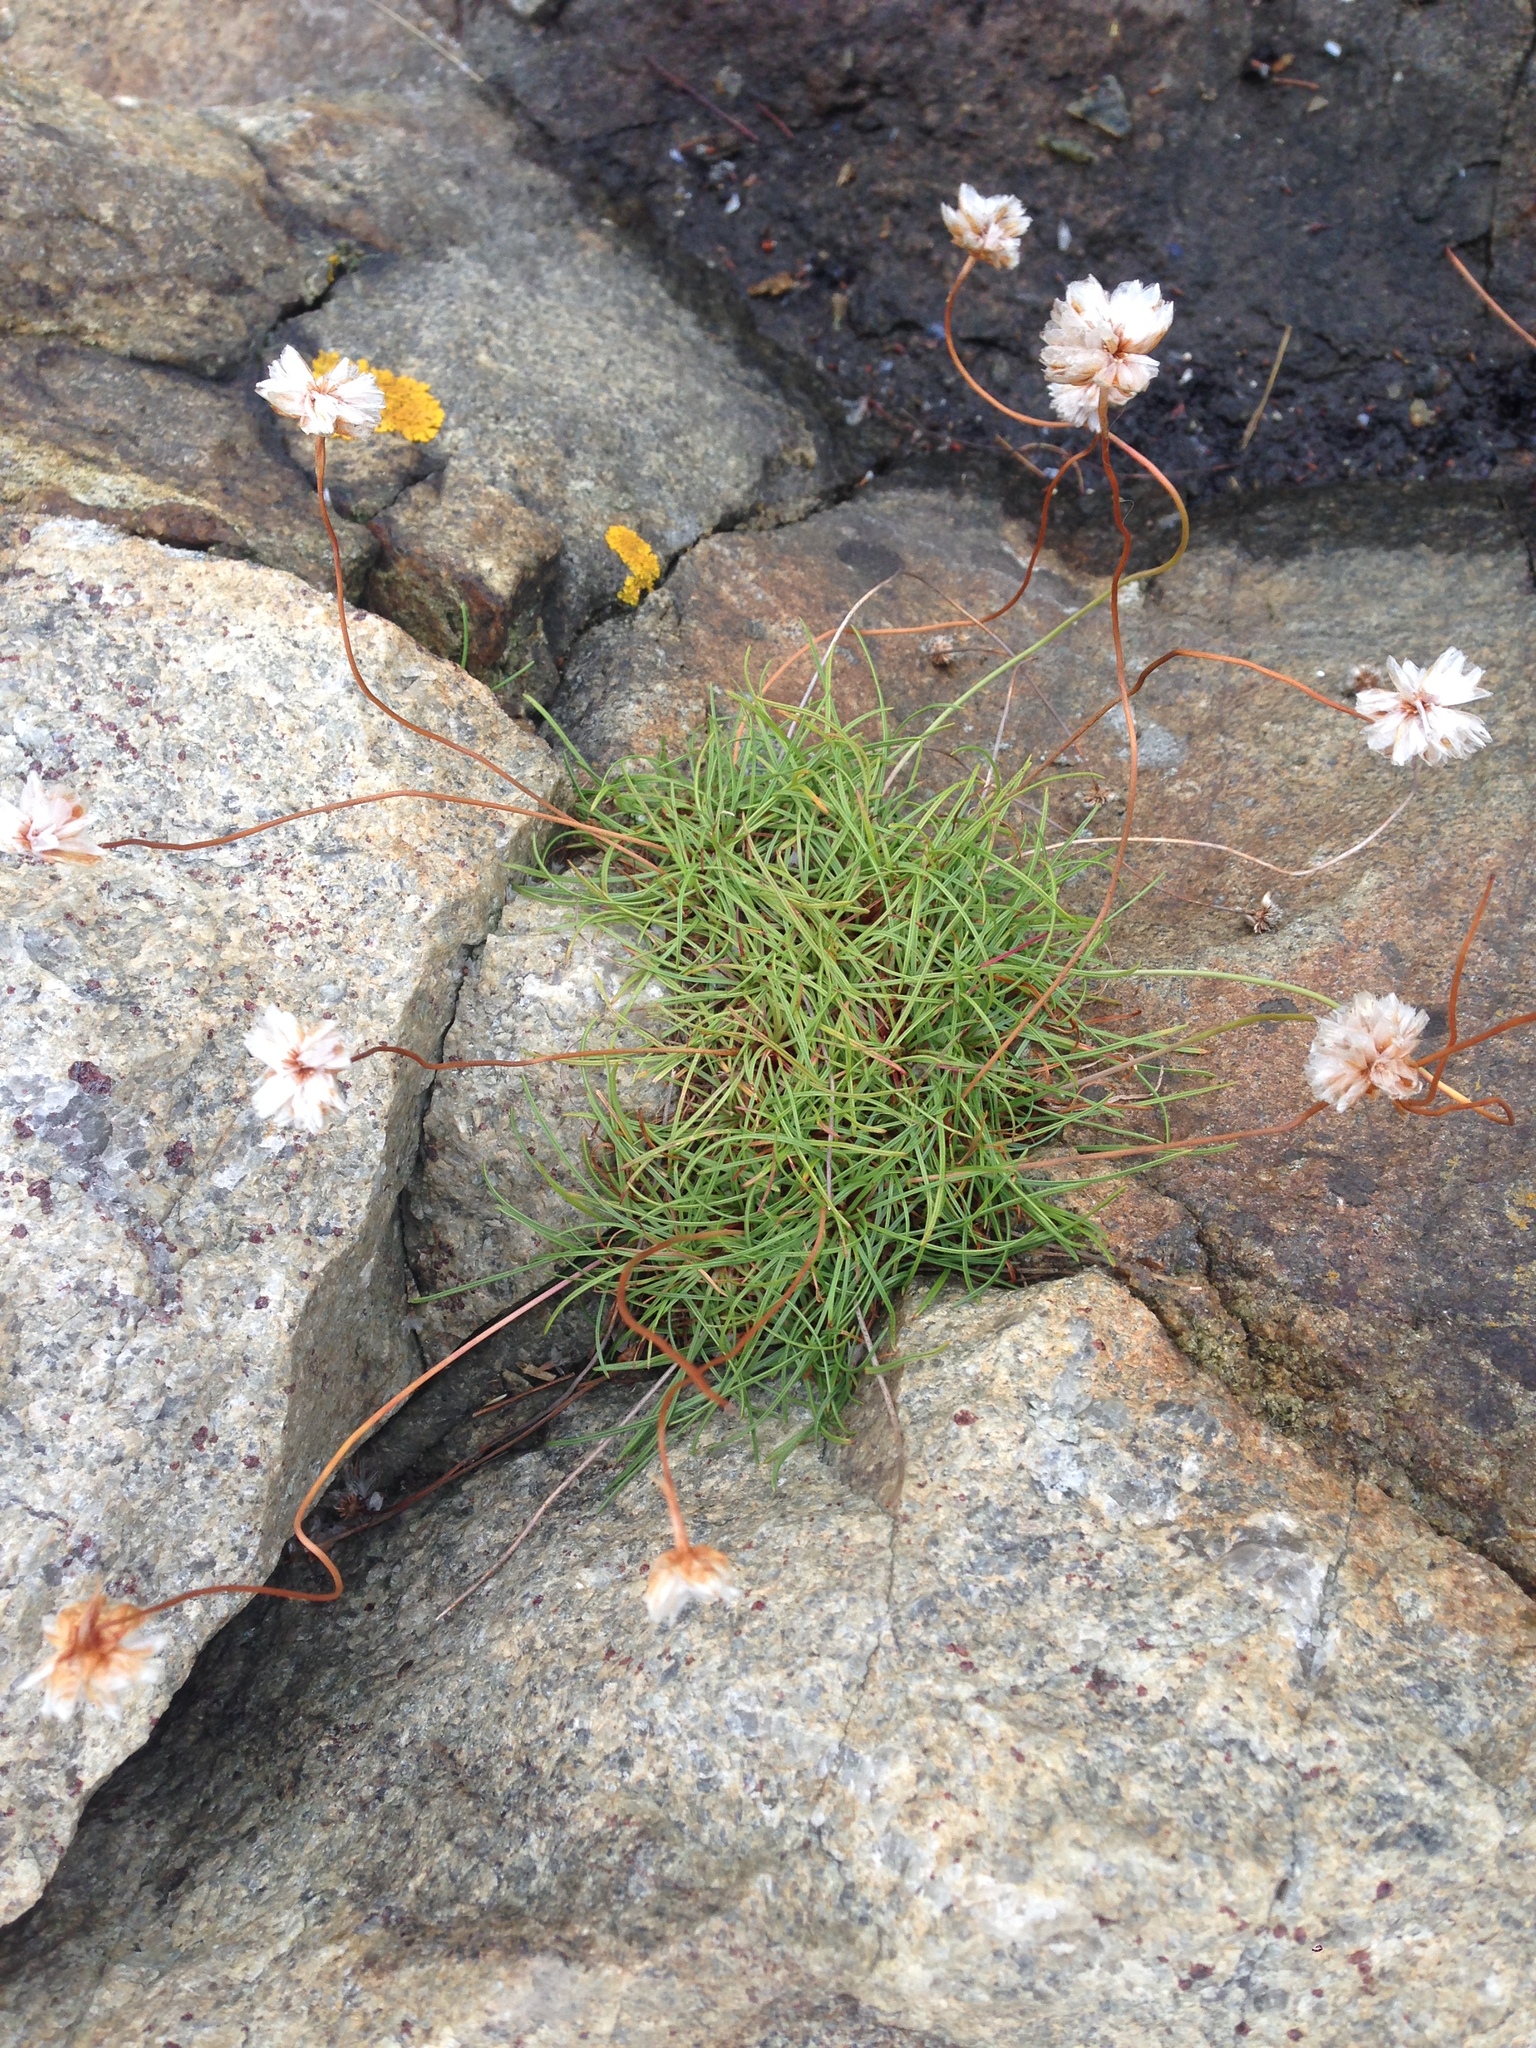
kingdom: Plantae
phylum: Tracheophyta
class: Magnoliopsida
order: Caryophyllales
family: Plumbaginaceae
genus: Armeria
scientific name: Armeria maritima
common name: Thrift
